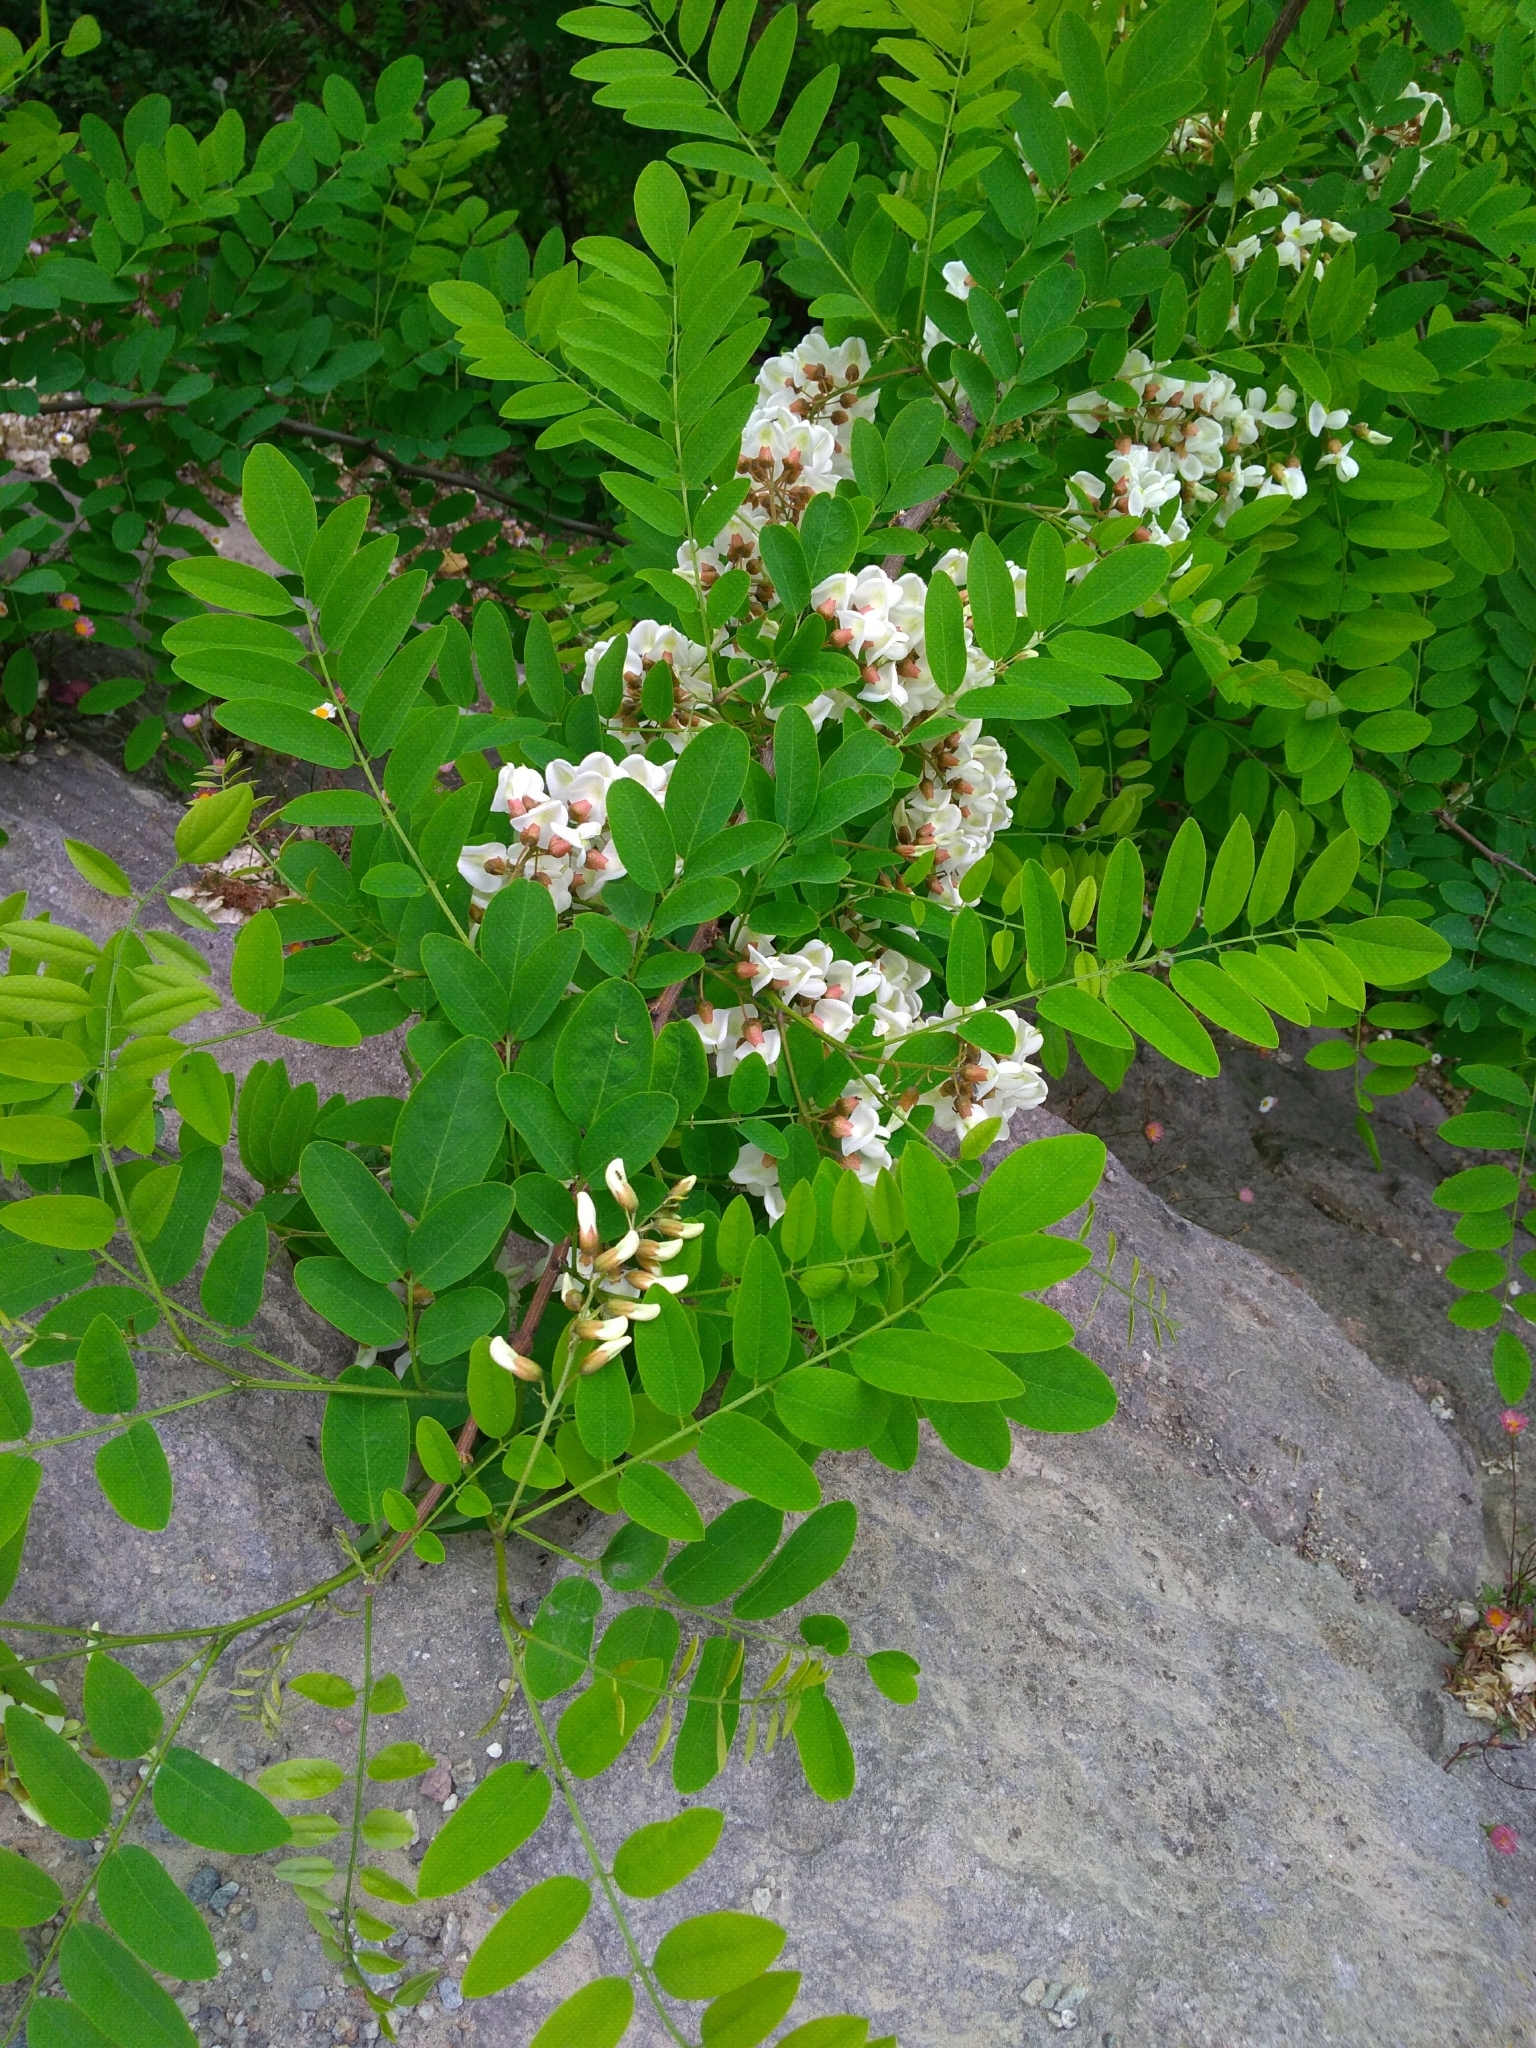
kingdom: Plantae
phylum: Tracheophyta
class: Magnoliopsida
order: Fabales
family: Fabaceae
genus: Robinia
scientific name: Robinia pseudoacacia
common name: Black locust
